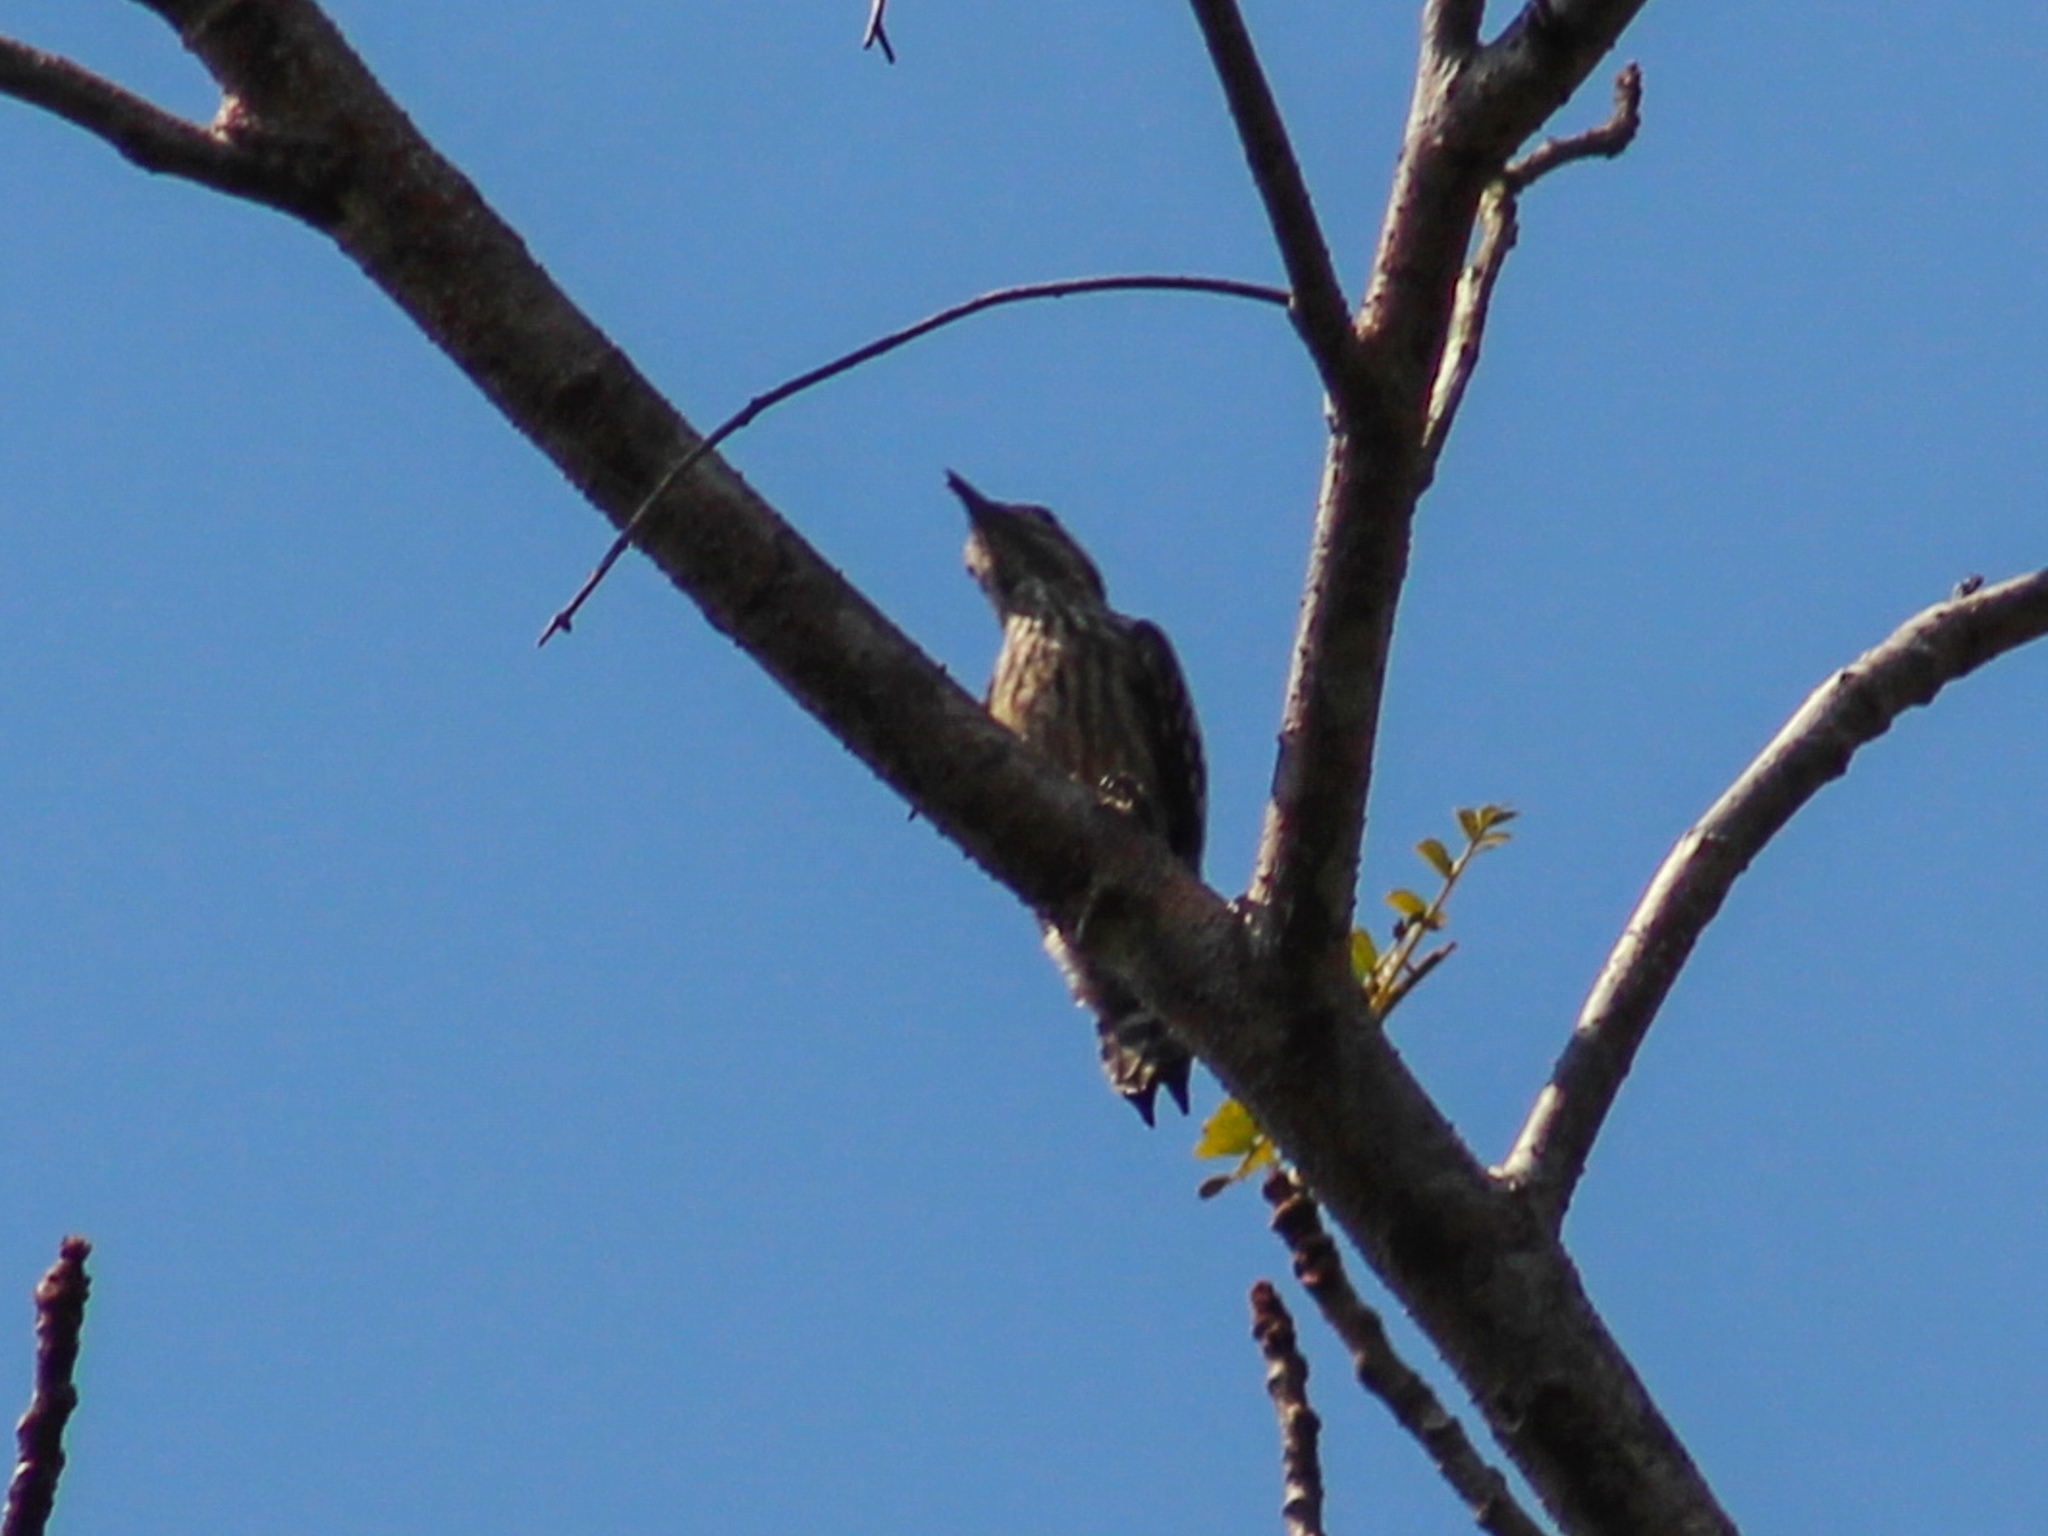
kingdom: Animalia
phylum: Chordata
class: Aves
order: Piciformes
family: Picidae
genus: Yungipicus
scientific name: Yungipicus canicapillus
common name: Grey-capped pygmy woodpecker
